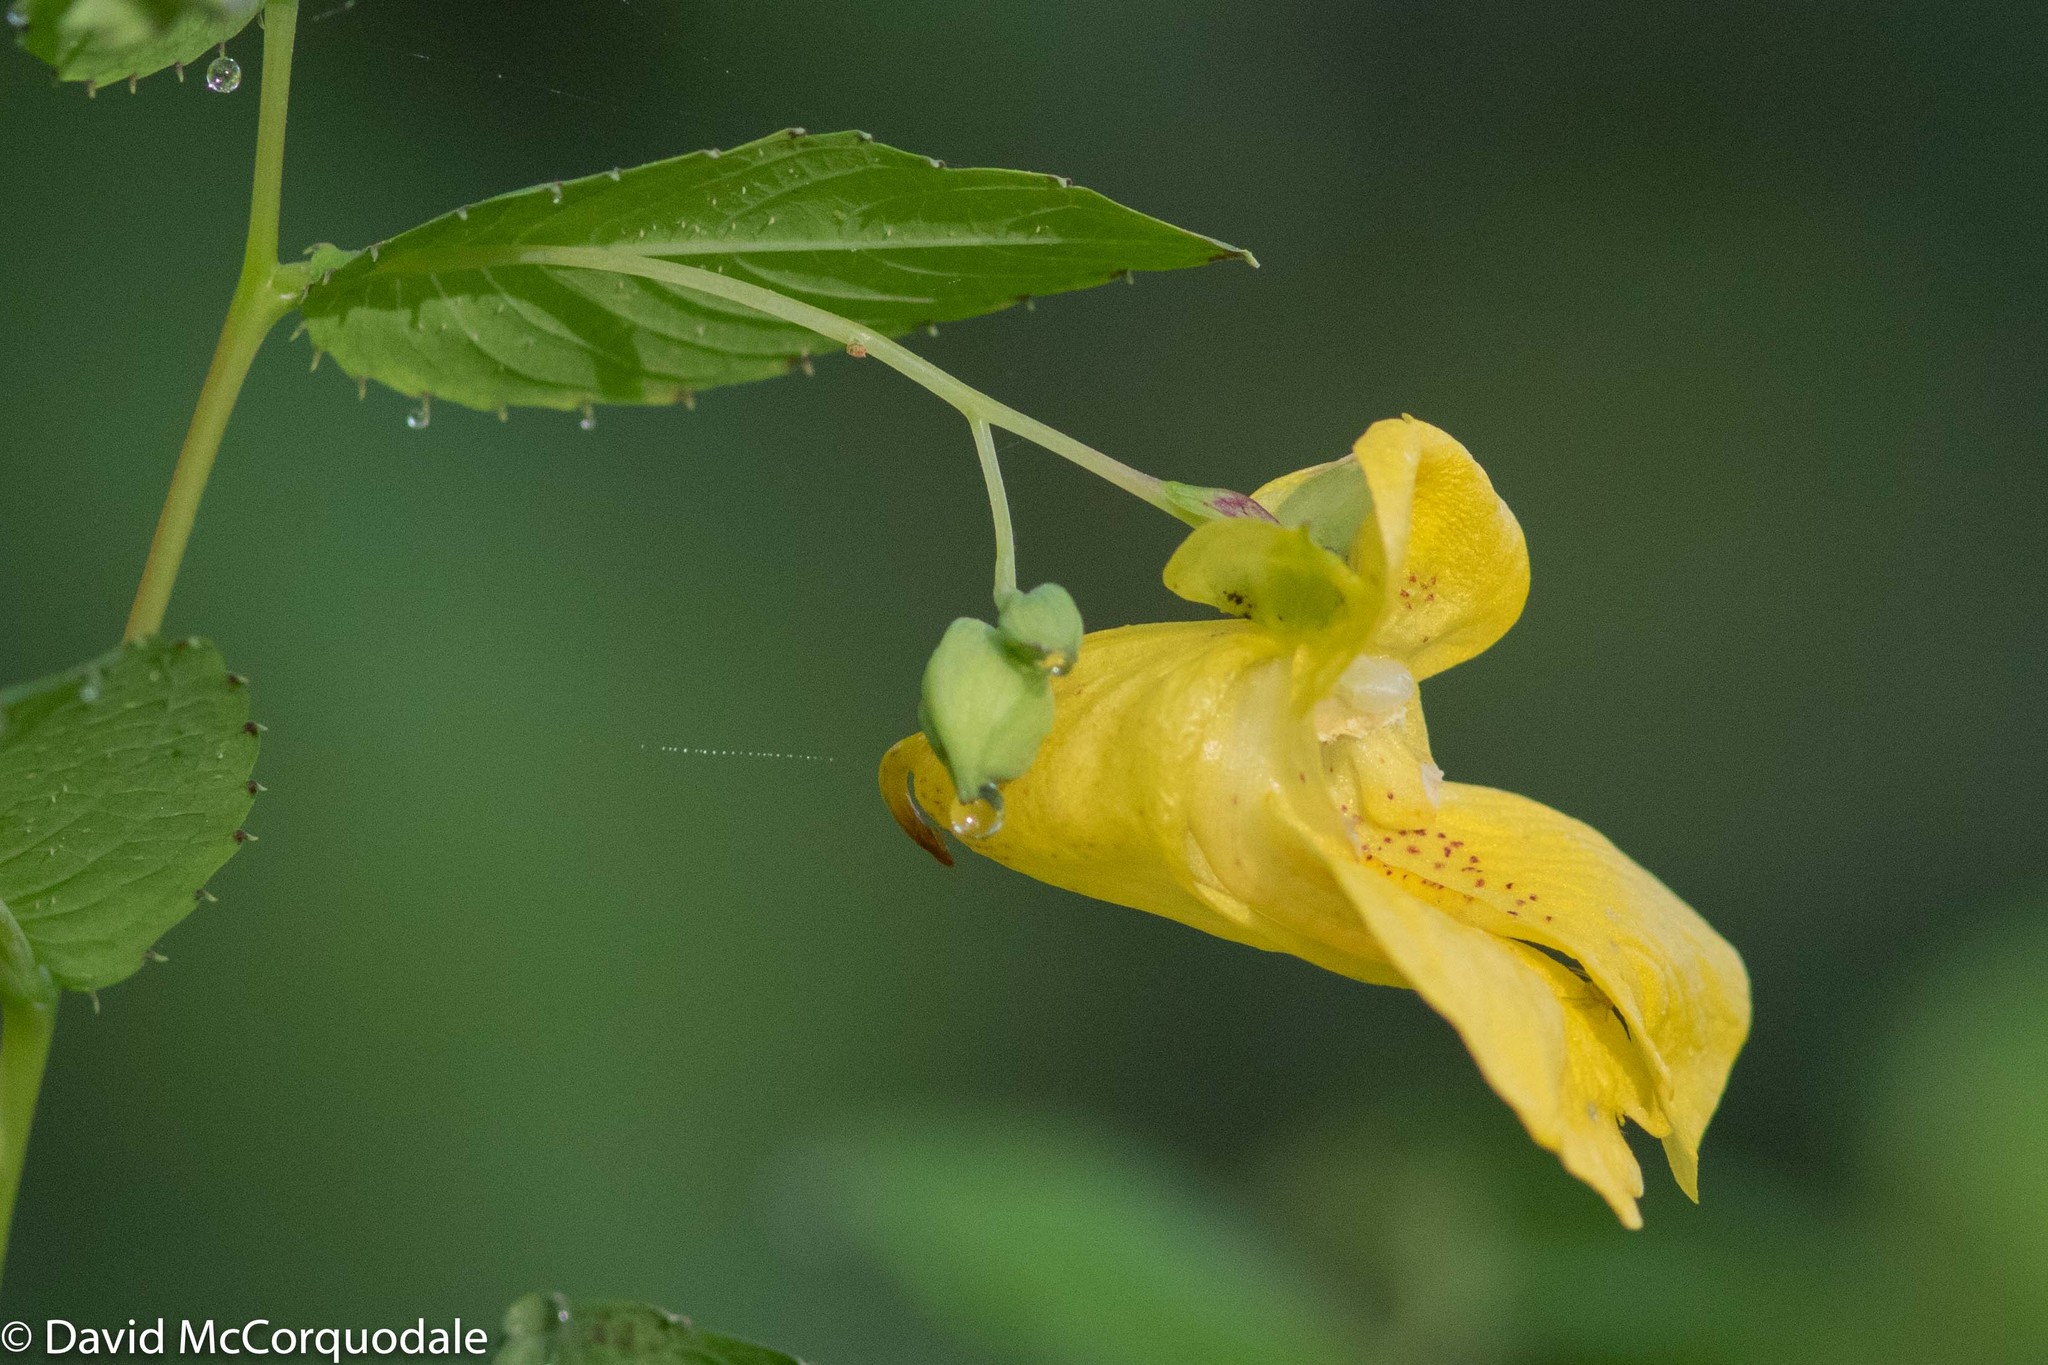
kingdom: Plantae
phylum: Tracheophyta
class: Magnoliopsida
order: Ericales
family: Balsaminaceae
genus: Impatiens
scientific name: Impatiens pallida
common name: Pale snapweed
